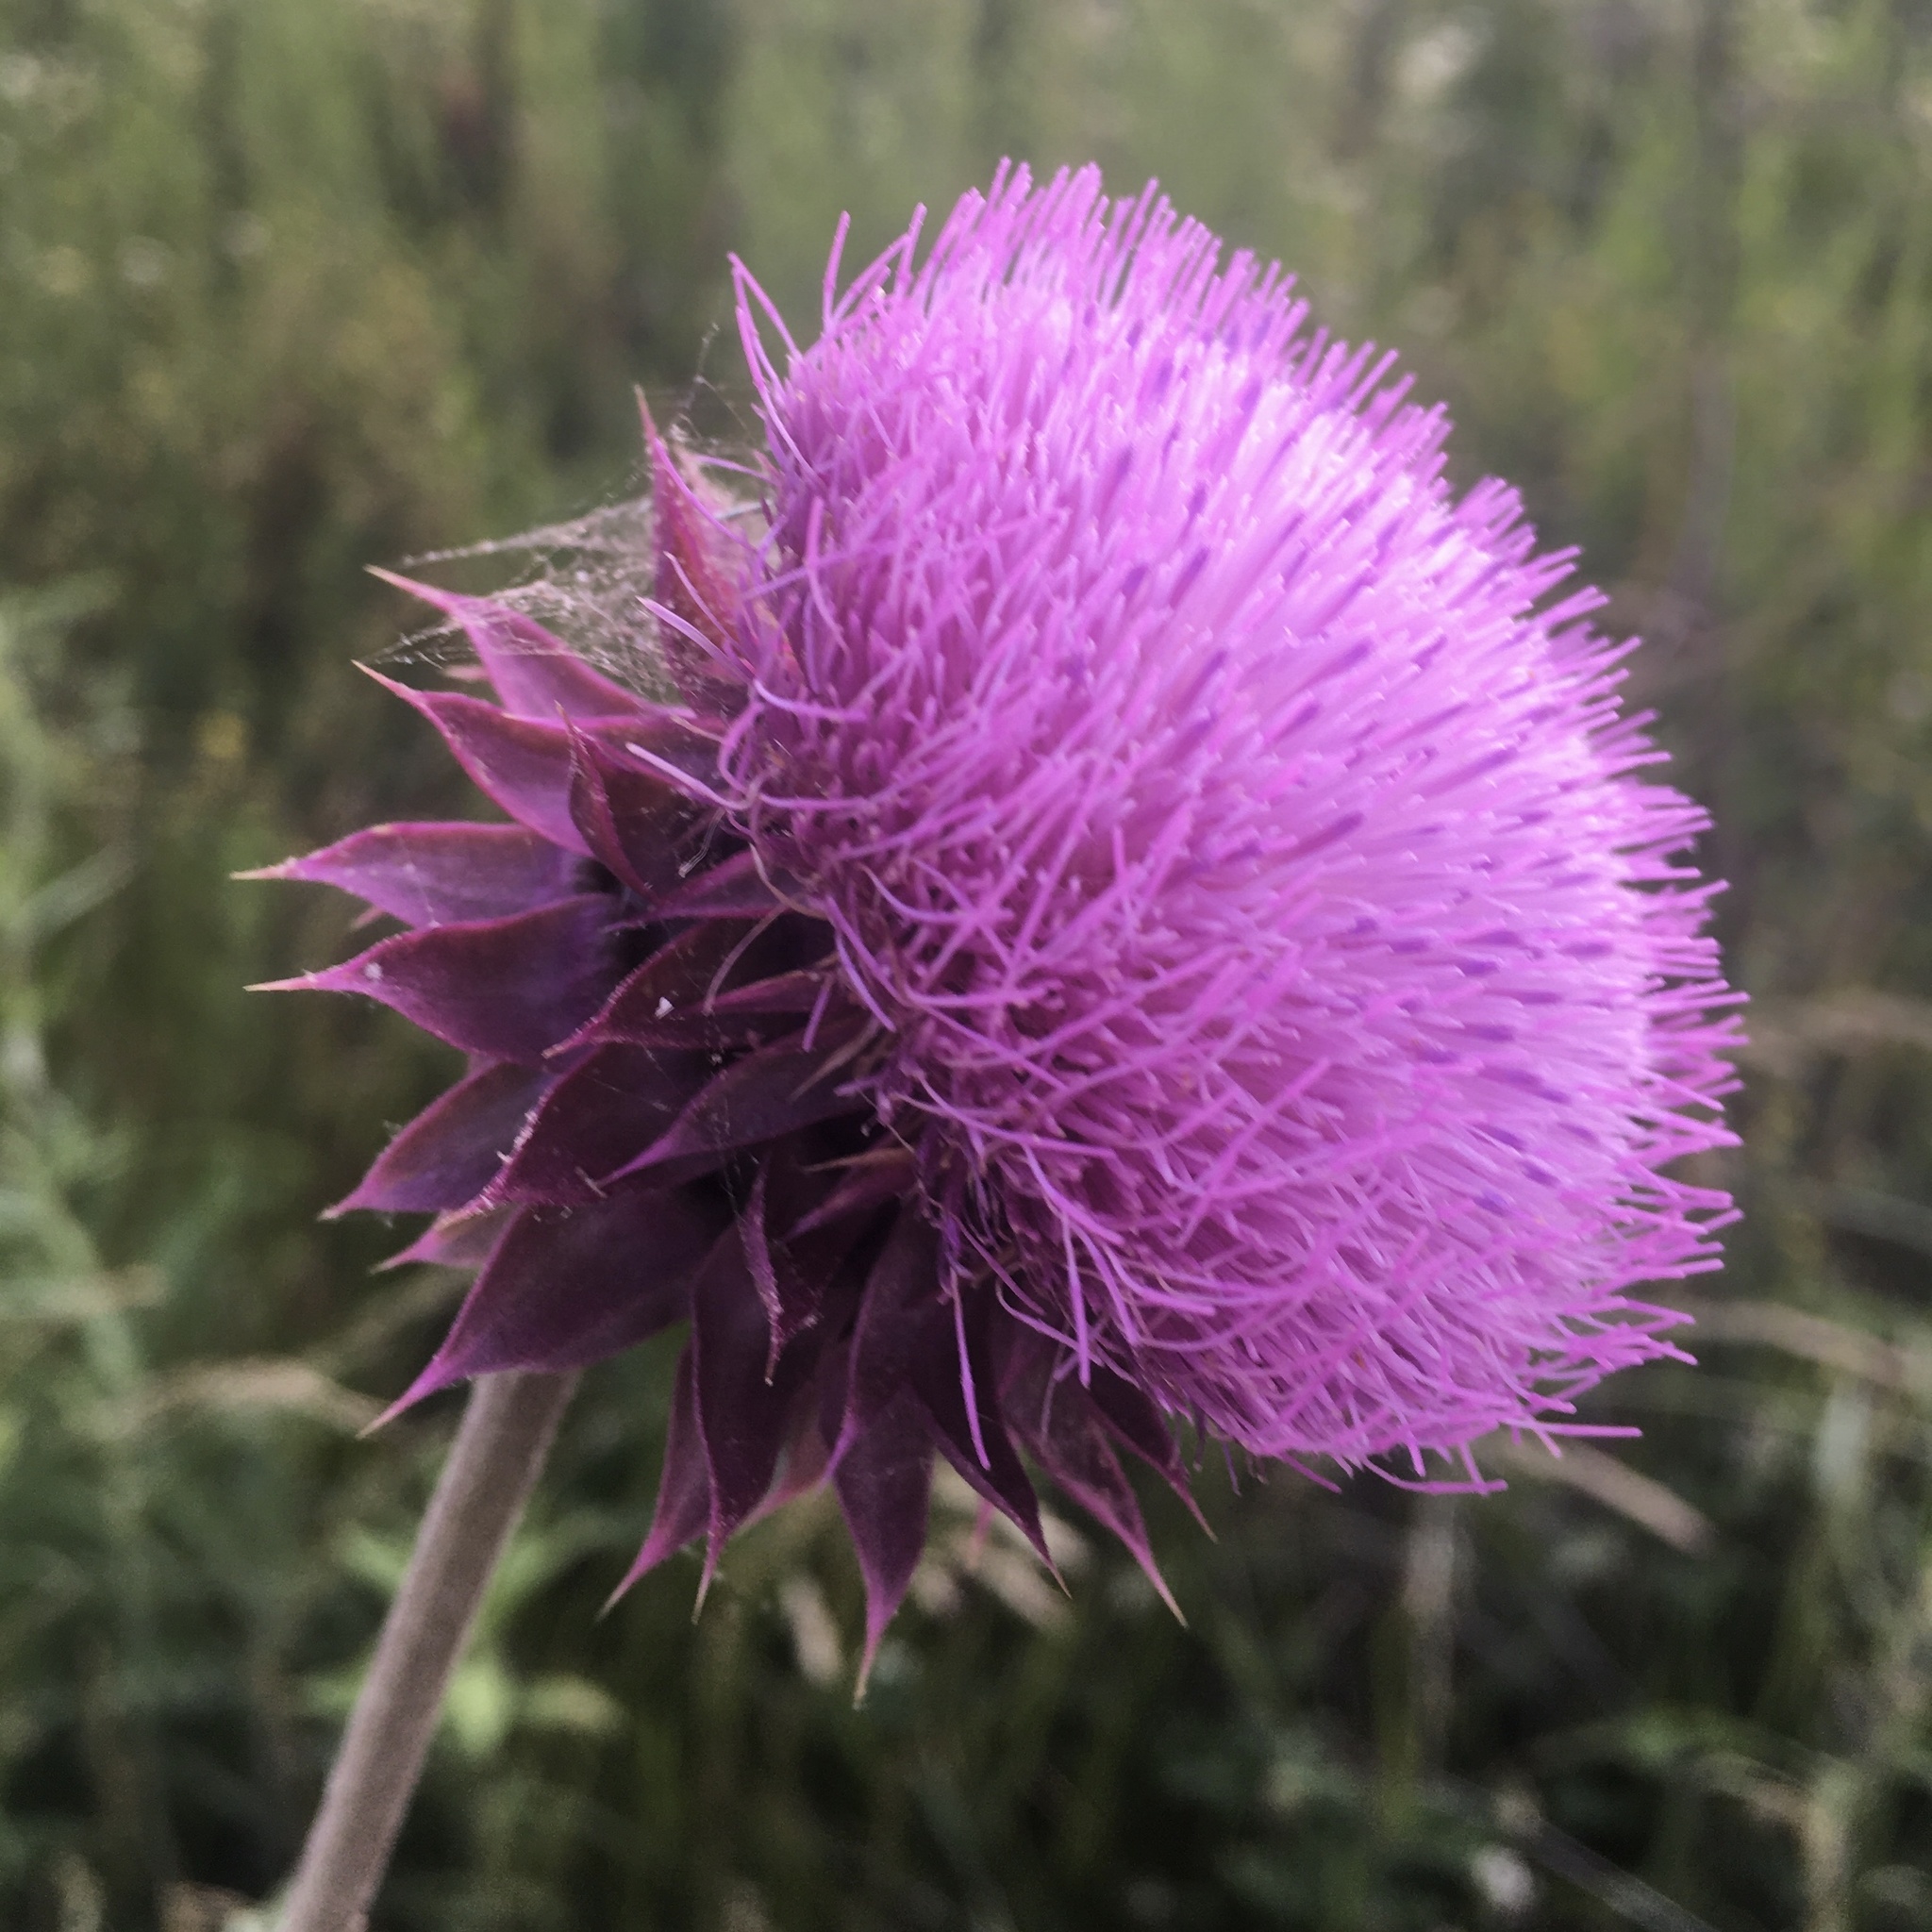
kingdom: Plantae
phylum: Tracheophyta
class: Magnoliopsida
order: Asterales
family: Asteraceae
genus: Carduus
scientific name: Carduus nutans
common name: Musk thistle
